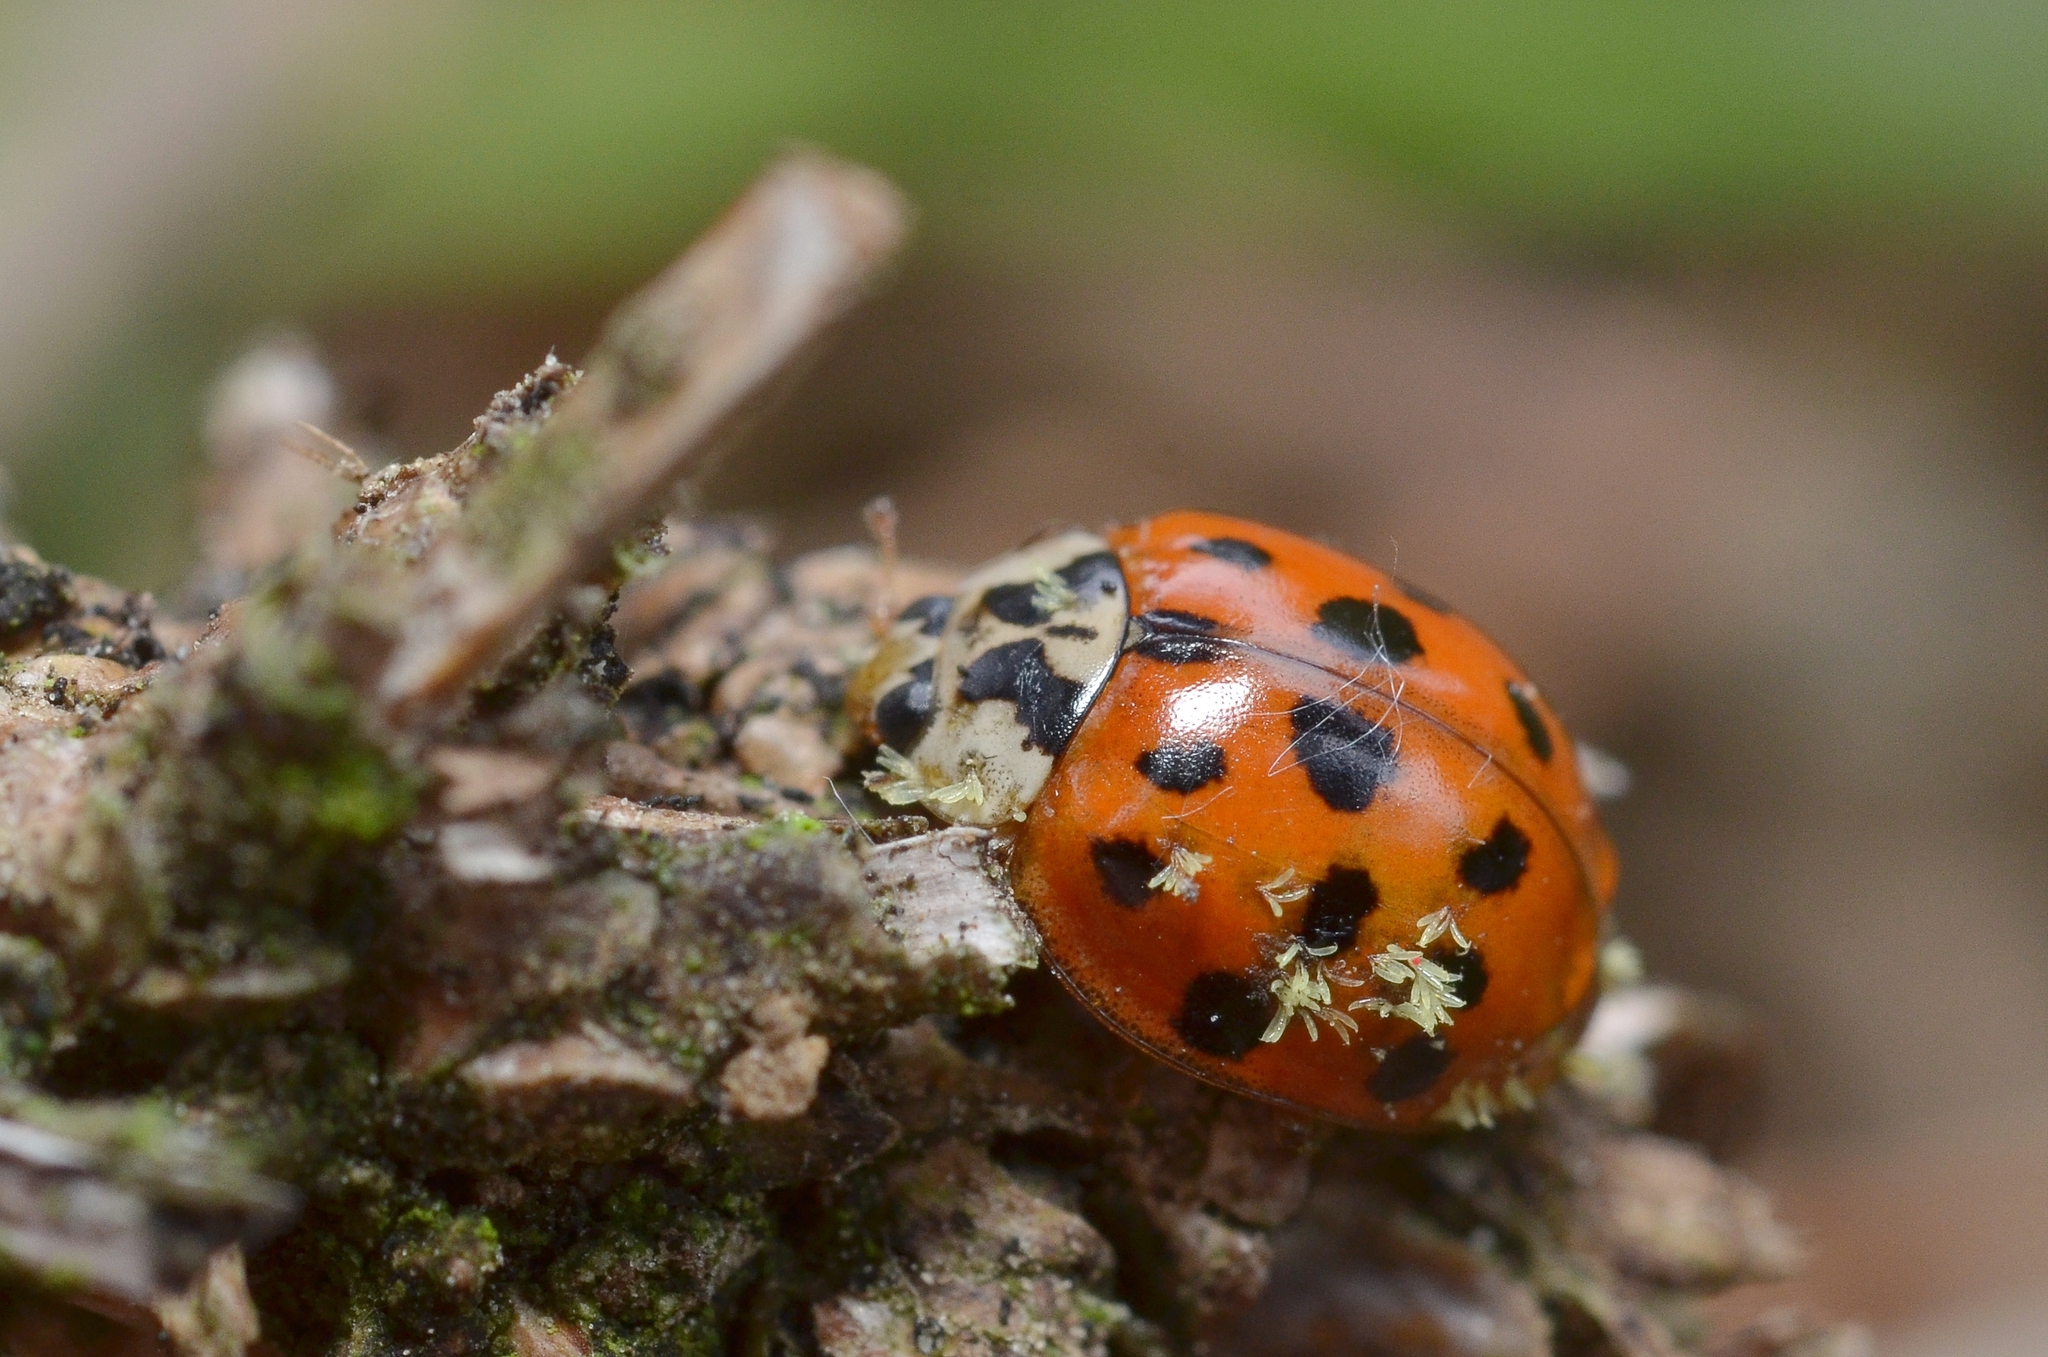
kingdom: Animalia
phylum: Arthropoda
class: Insecta
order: Coleoptera
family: Coccinellidae
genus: Harmonia
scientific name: Harmonia axyridis
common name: Harlequin ladybird
